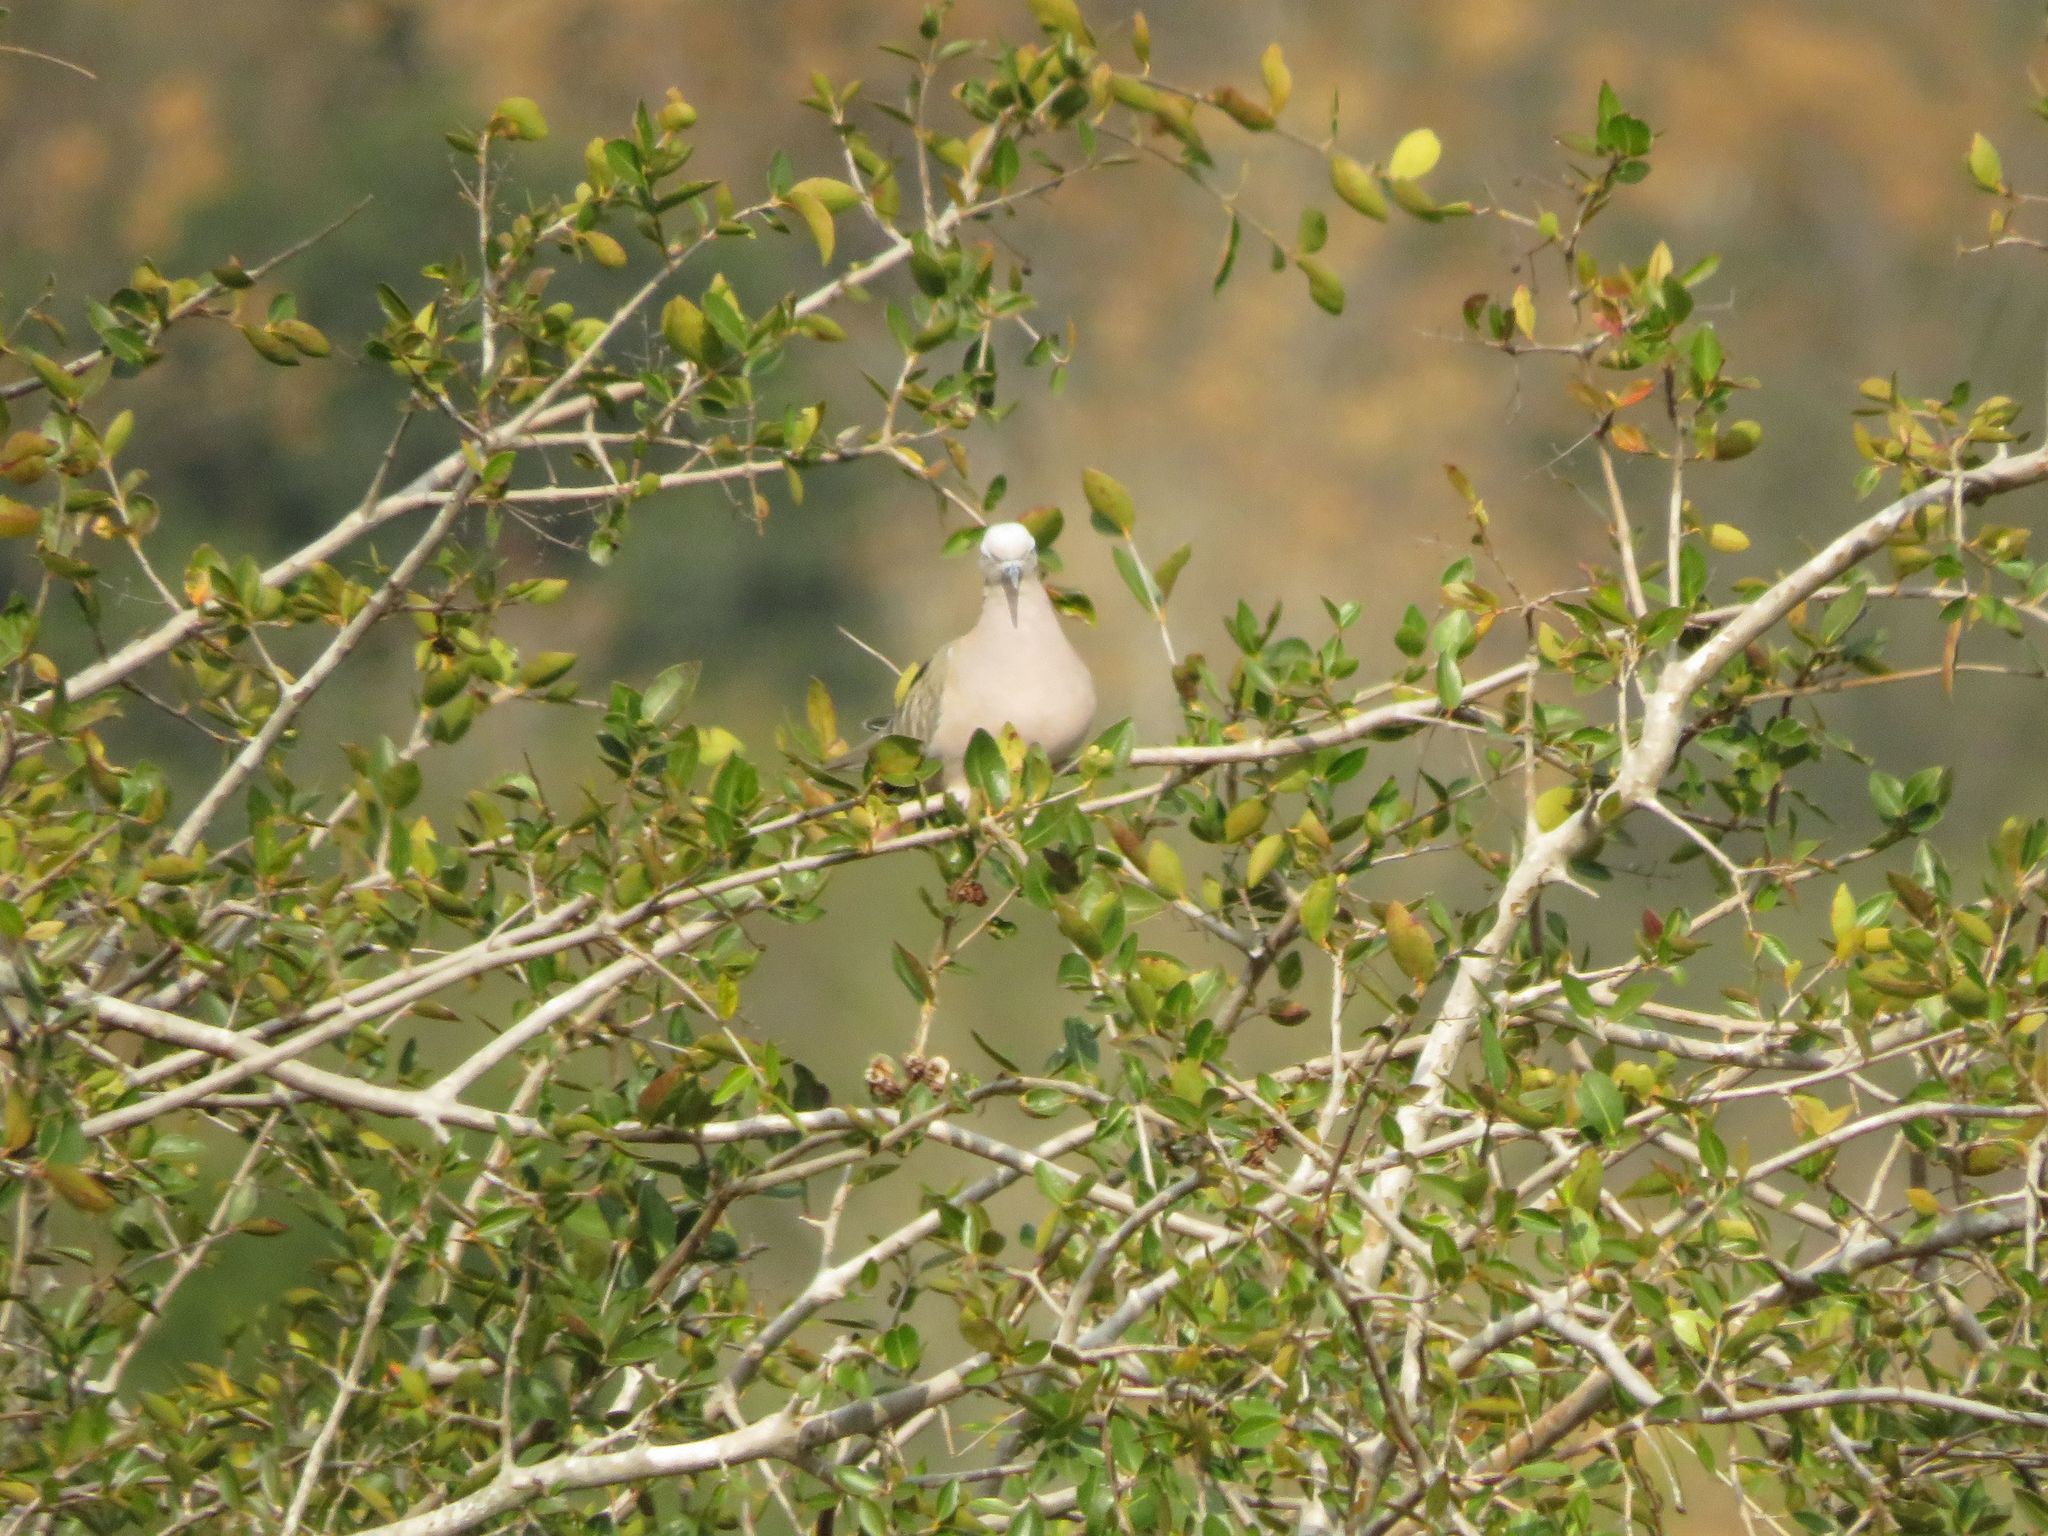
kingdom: Animalia
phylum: Chordata
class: Aves
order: Columbiformes
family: Columbidae
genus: Zenaida
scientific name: Zenaida auriculata
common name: Eared dove
